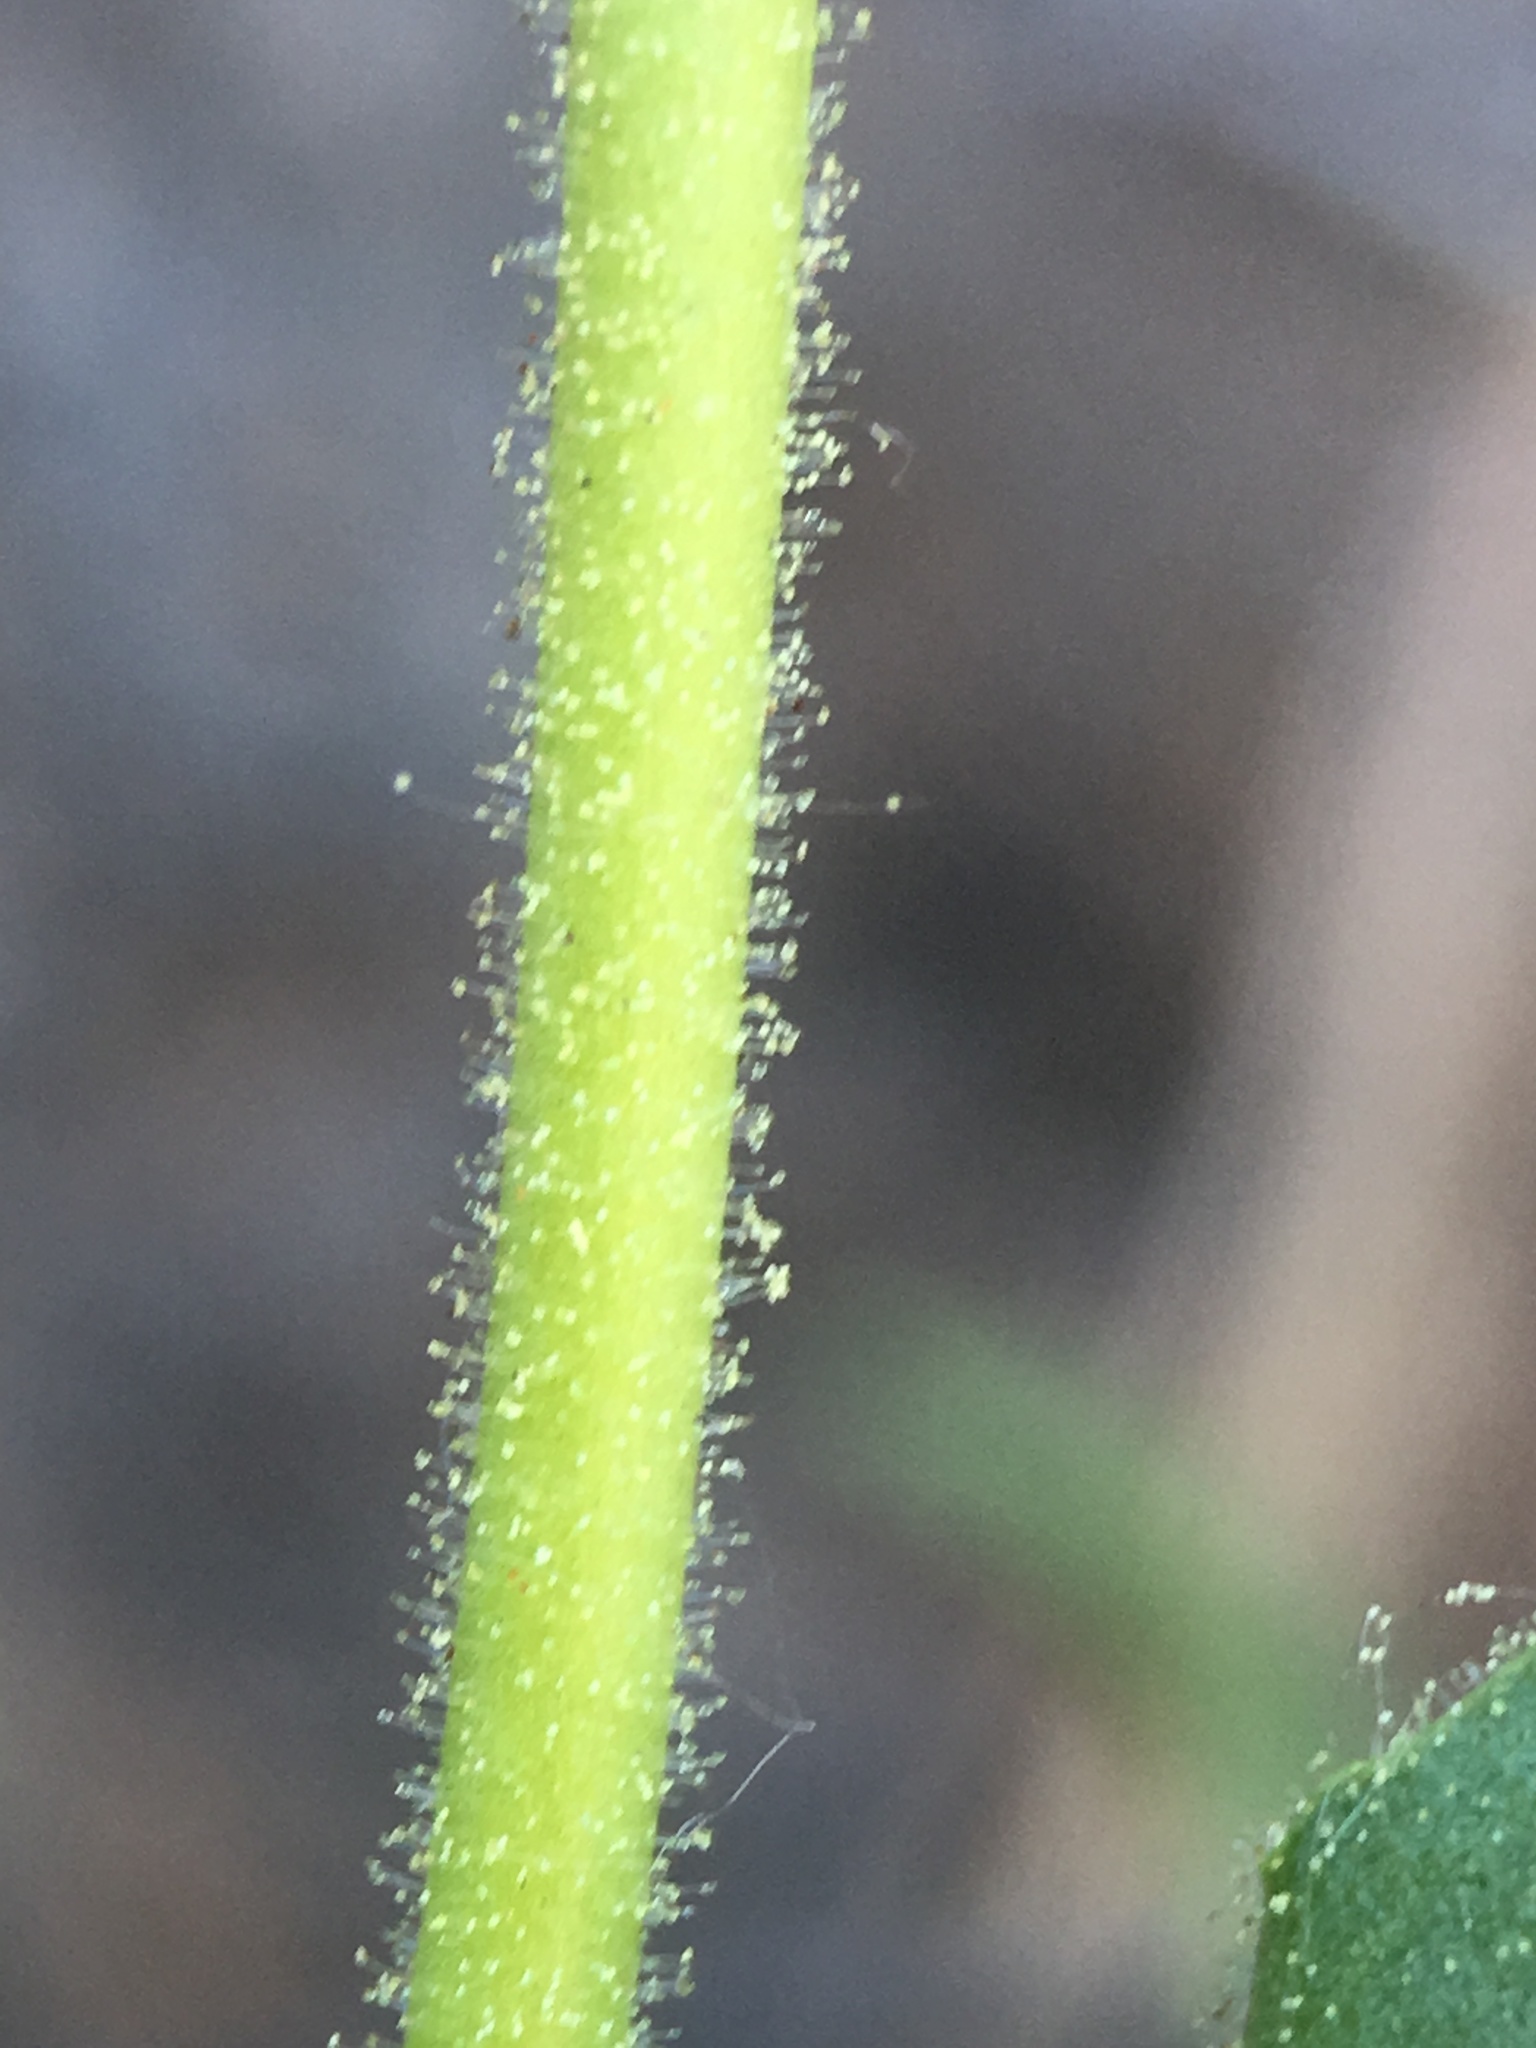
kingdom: Plantae
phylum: Tracheophyta
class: Magnoliopsida
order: Lamiales
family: Plantaginaceae
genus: Penstemon
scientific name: Penstemon sudans
